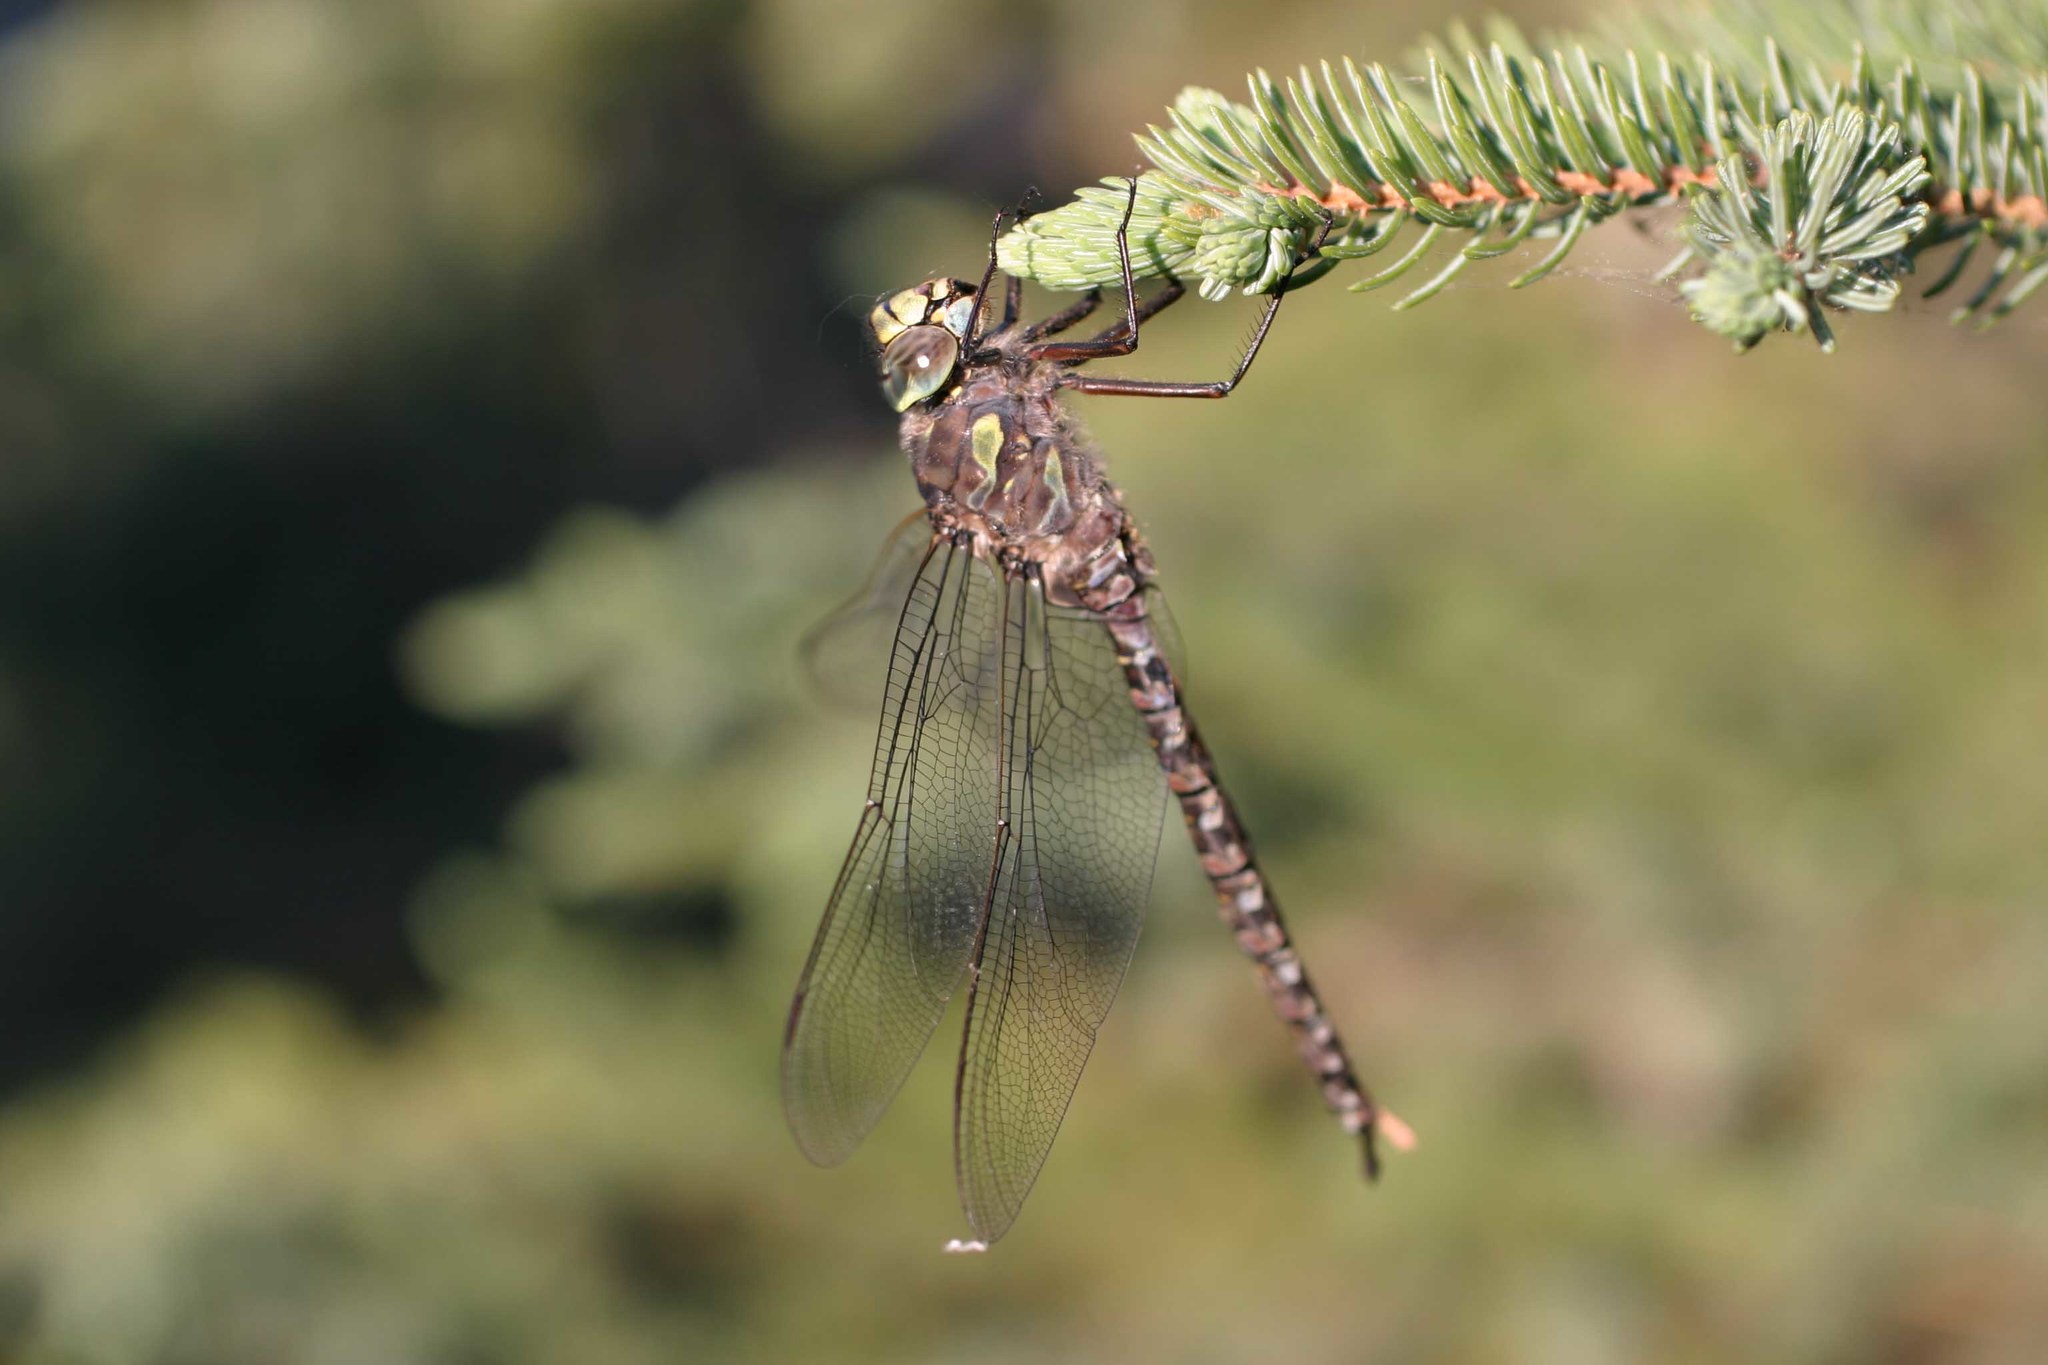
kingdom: Animalia
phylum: Arthropoda
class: Insecta
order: Odonata
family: Aeshnidae
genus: Aeshna
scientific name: Aeshna eremita
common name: Lake darner
